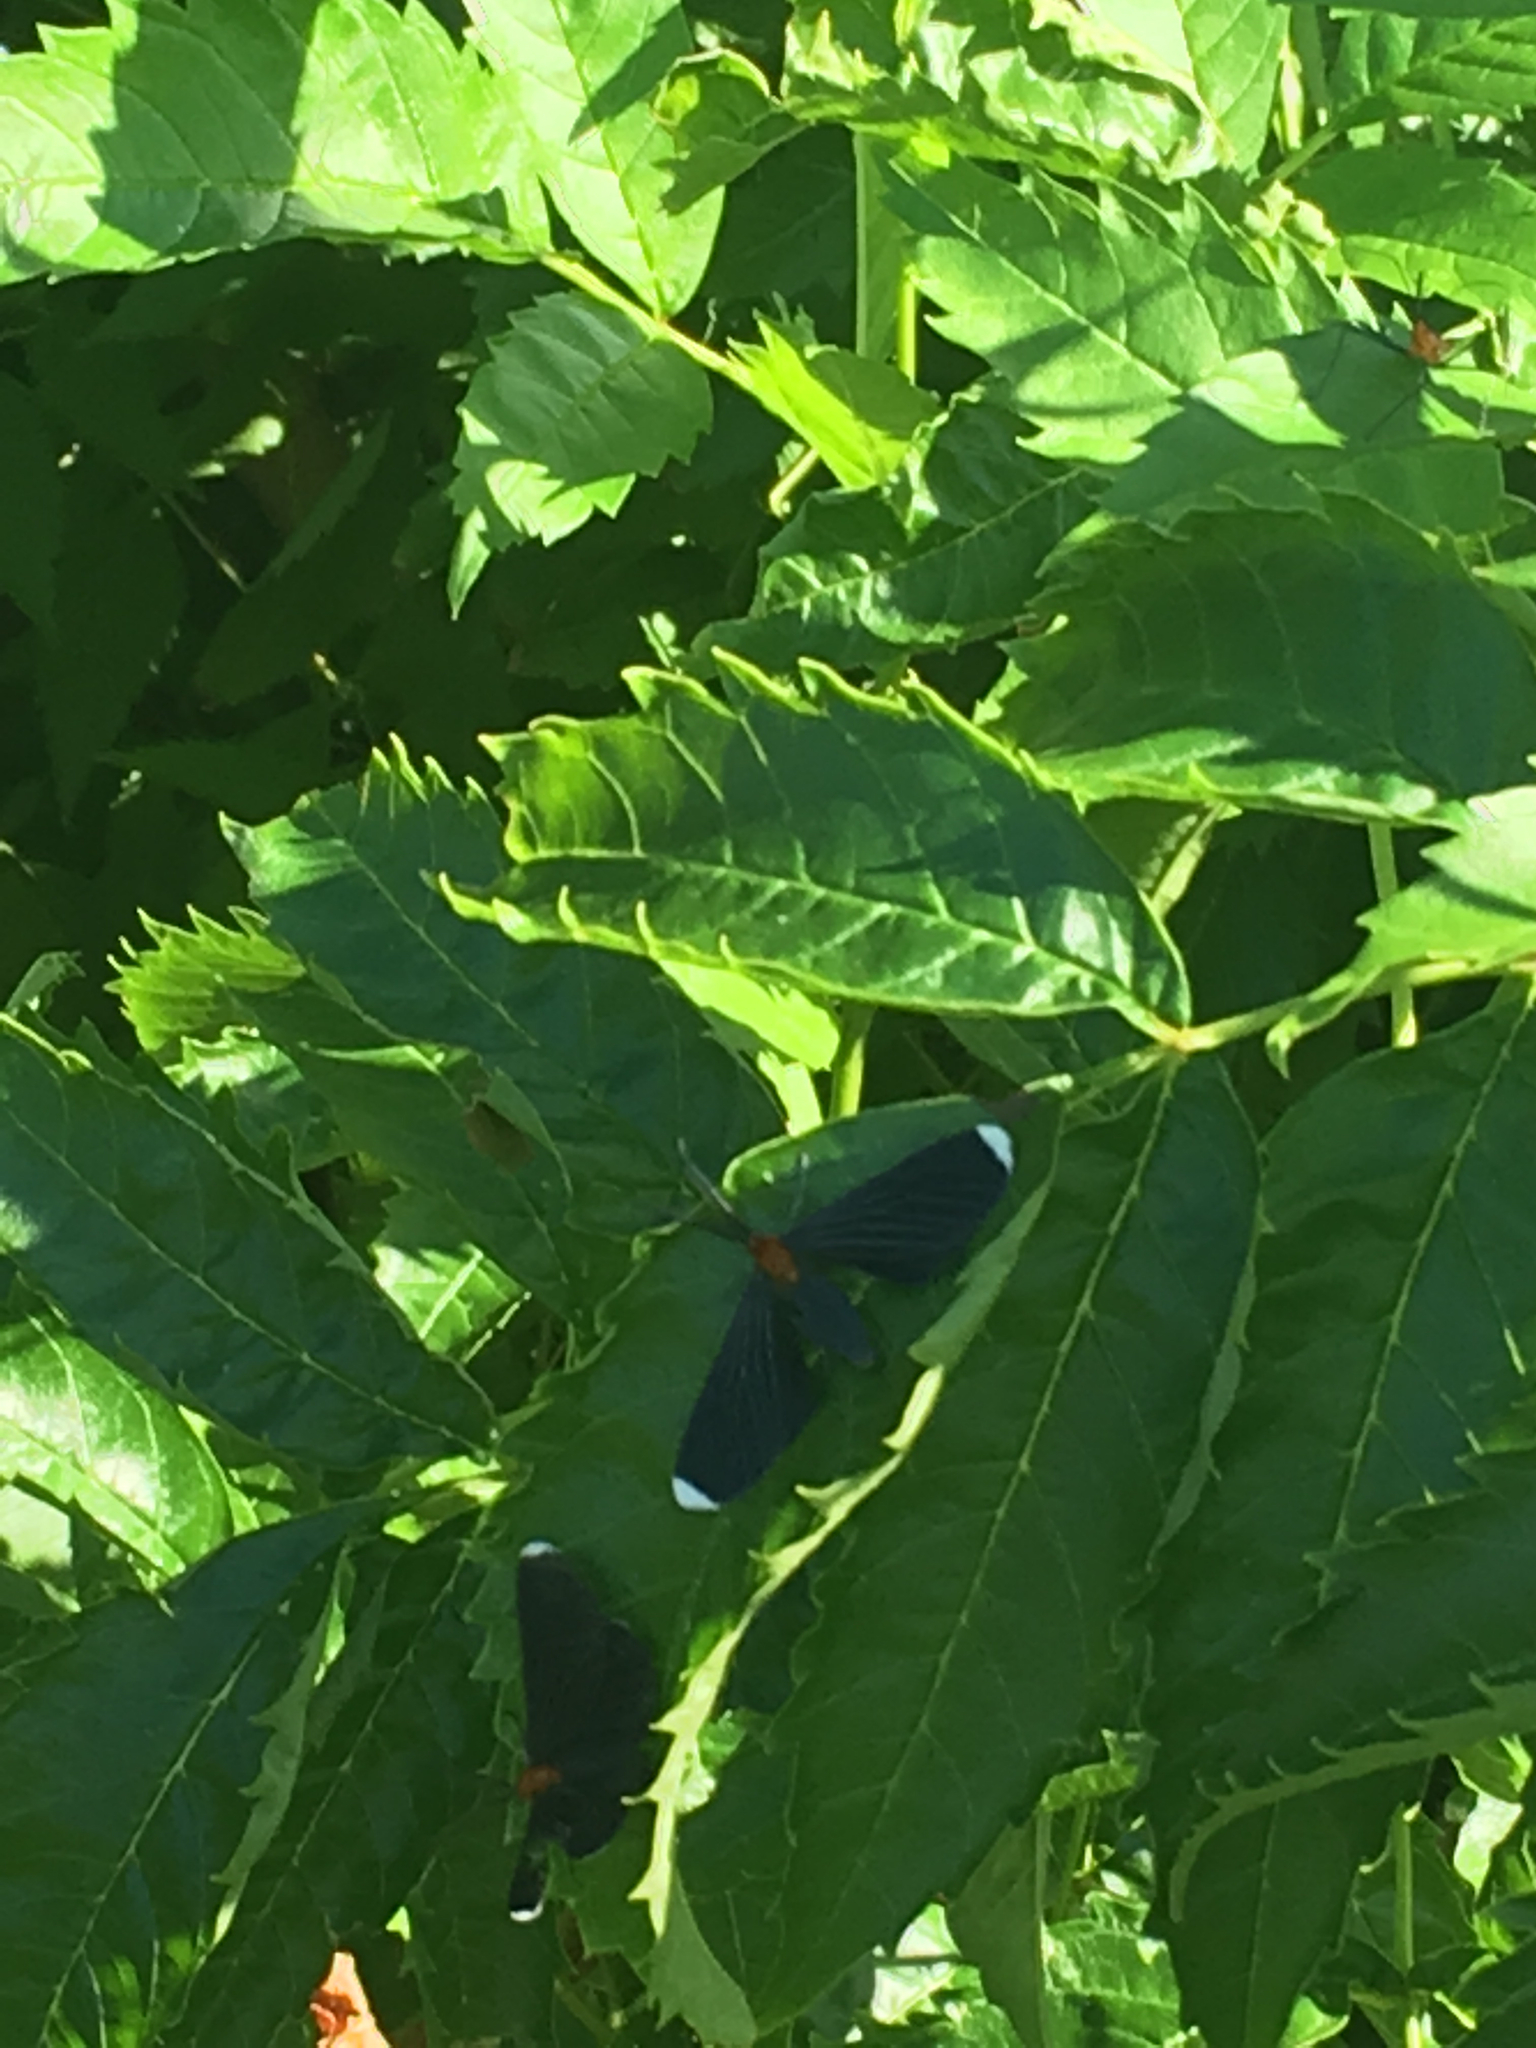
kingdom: Animalia
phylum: Arthropoda
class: Insecta
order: Lepidoptera
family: Geometridae
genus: Melanchroia
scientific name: Melanchroia chephise
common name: White-tipped black
